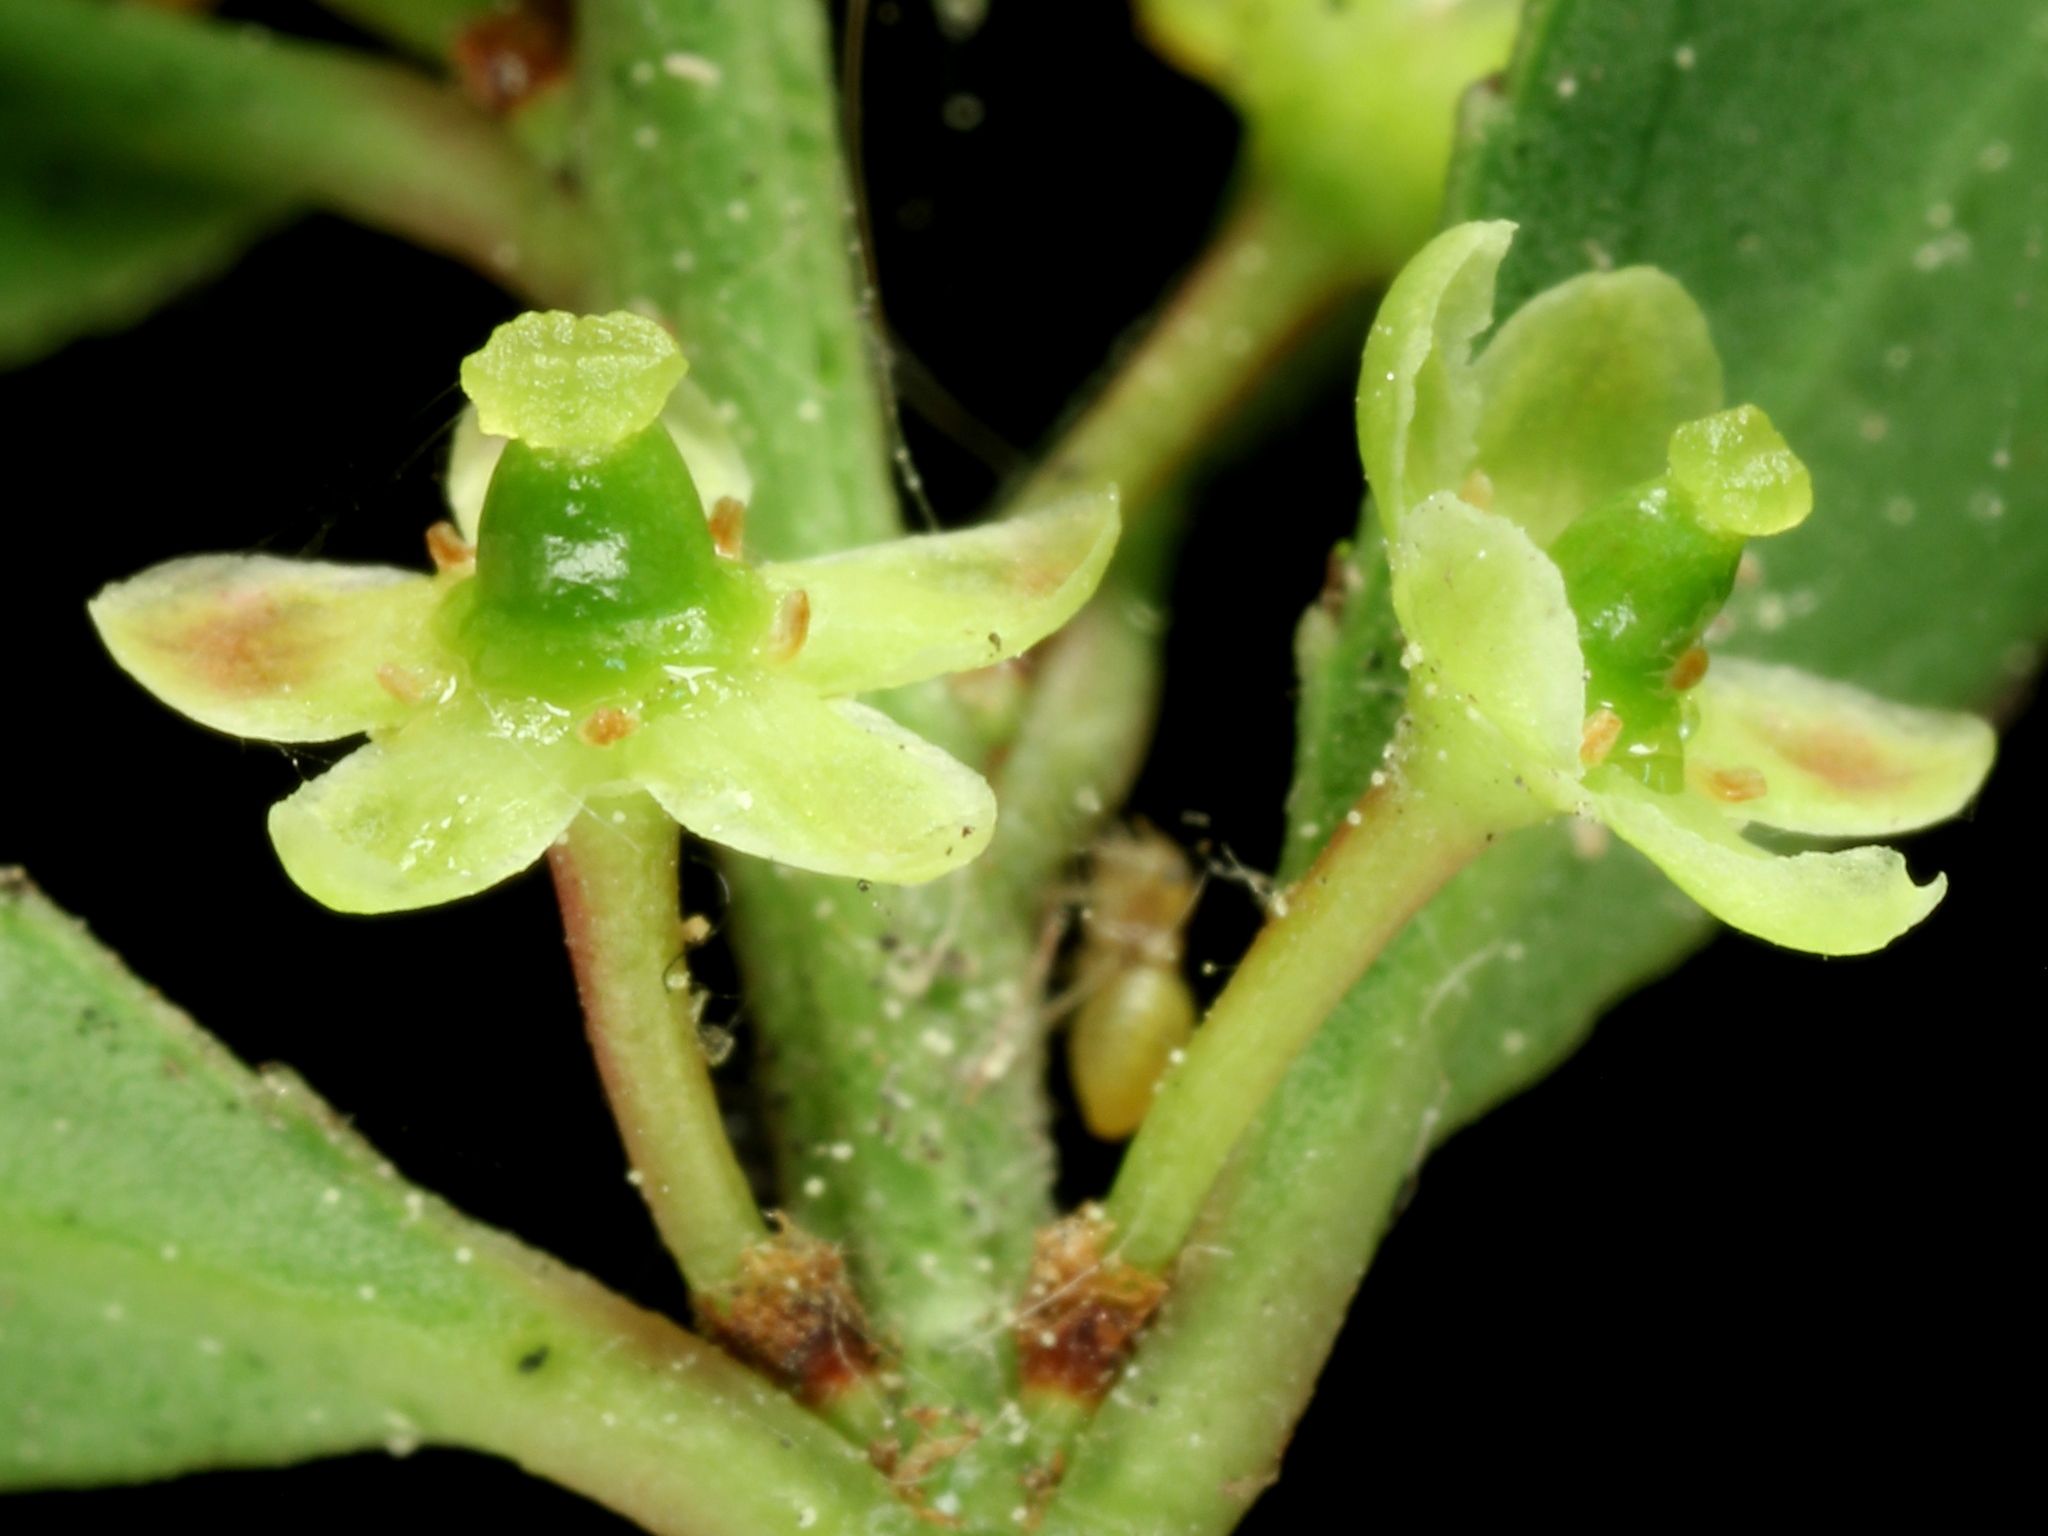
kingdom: Plantae
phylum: Tracheophyta
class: Magnoliopsida
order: Celastrales
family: Celastraceae
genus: Maytenus
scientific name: Maytenus boaria
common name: Mayten
